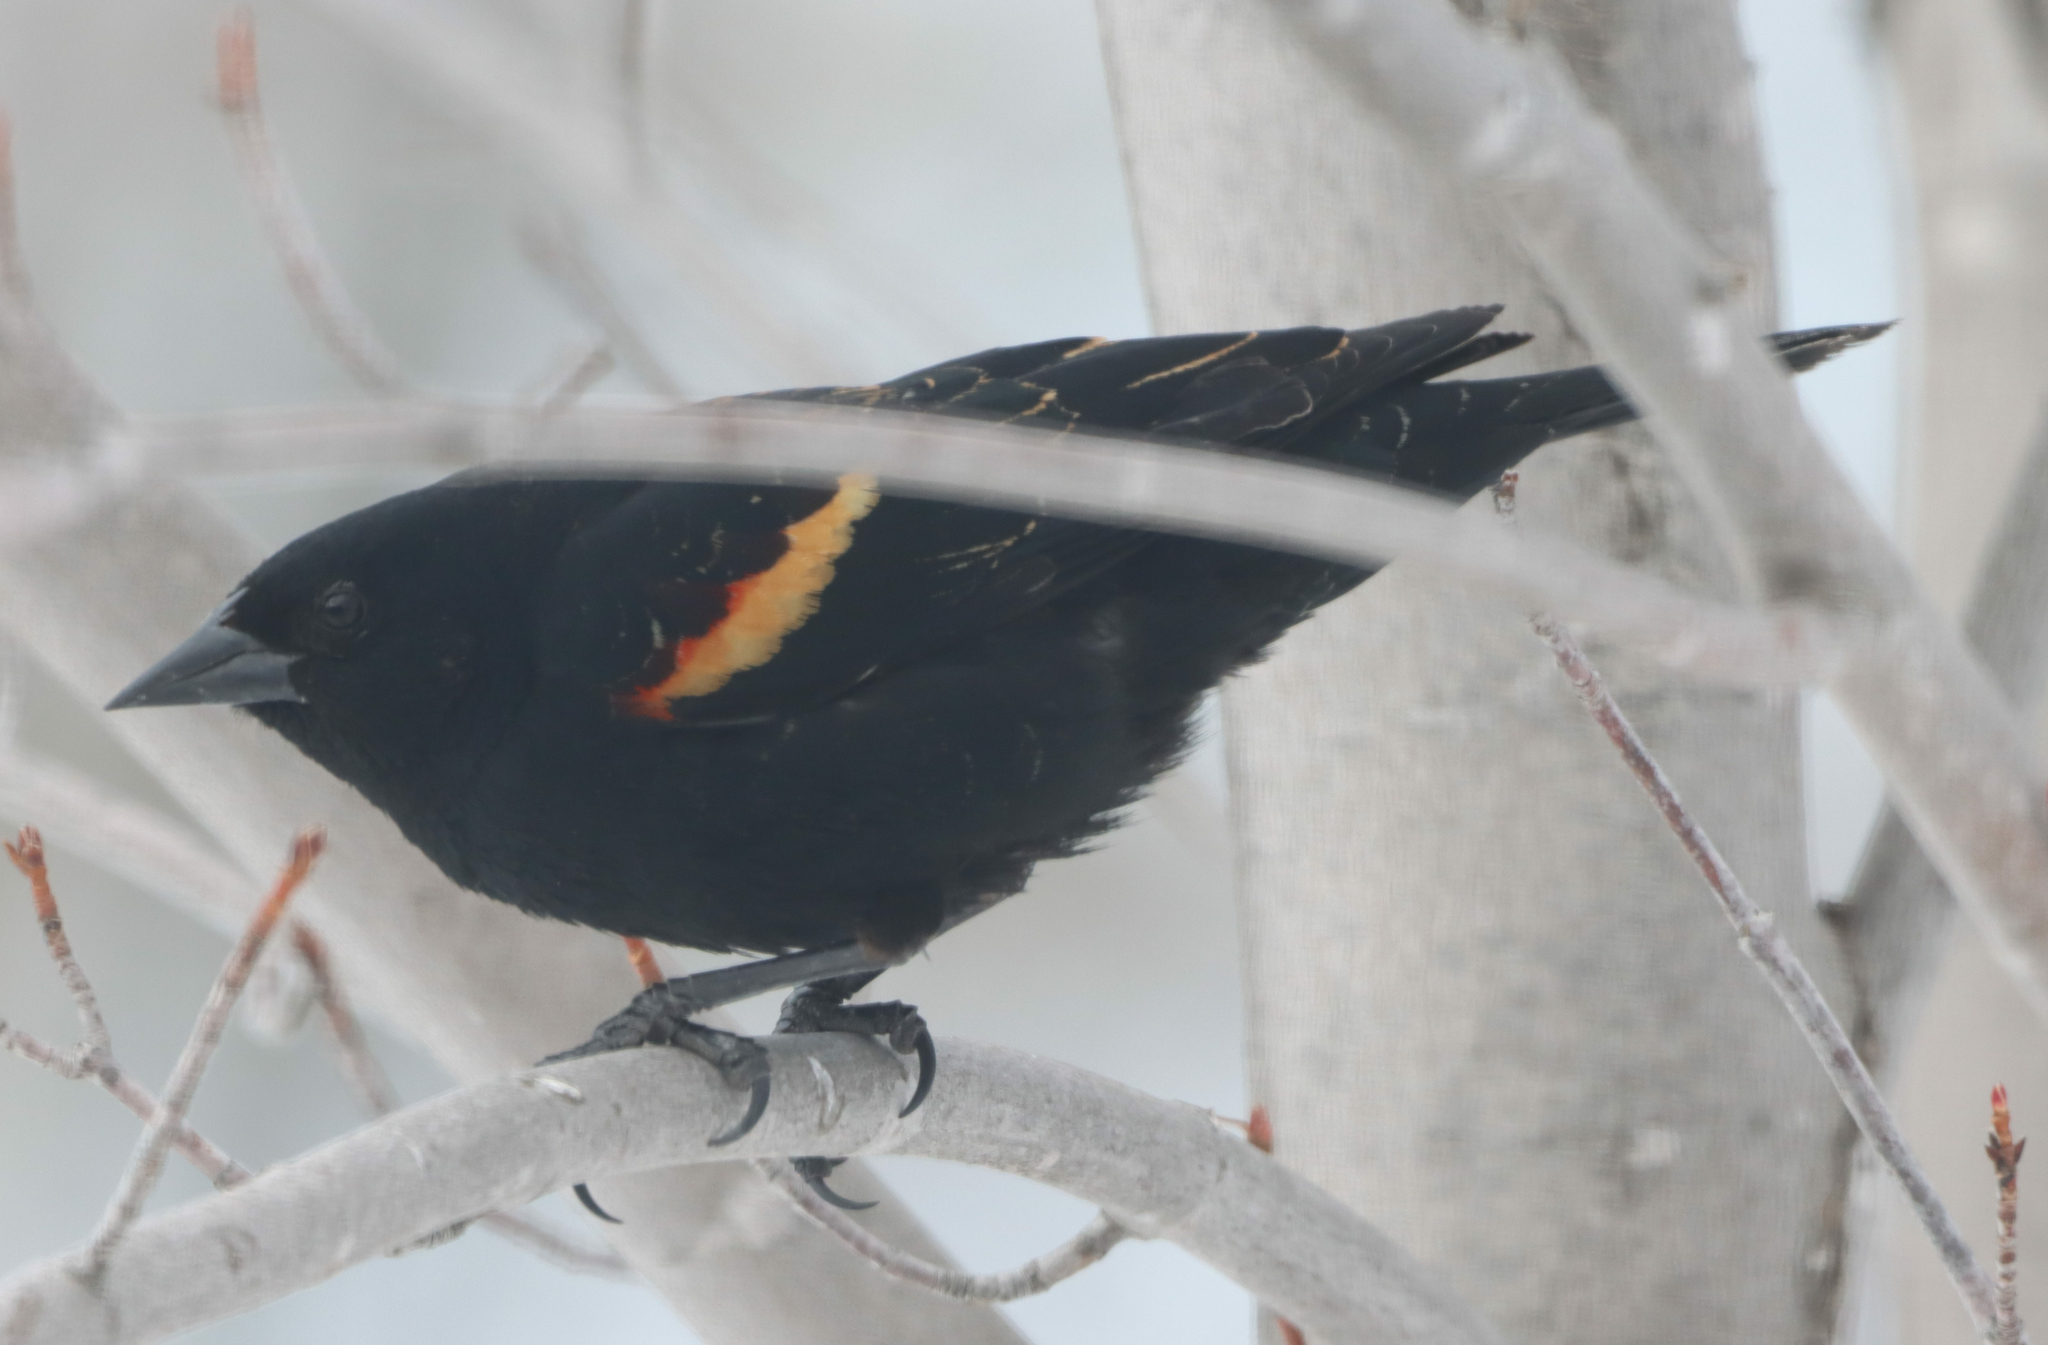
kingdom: Animalia
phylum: Chordata
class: Aves
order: Passeriformes
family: Icteridae
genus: Agelaius
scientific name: Agelaius phoeniceus
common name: Red-winged blackbird
